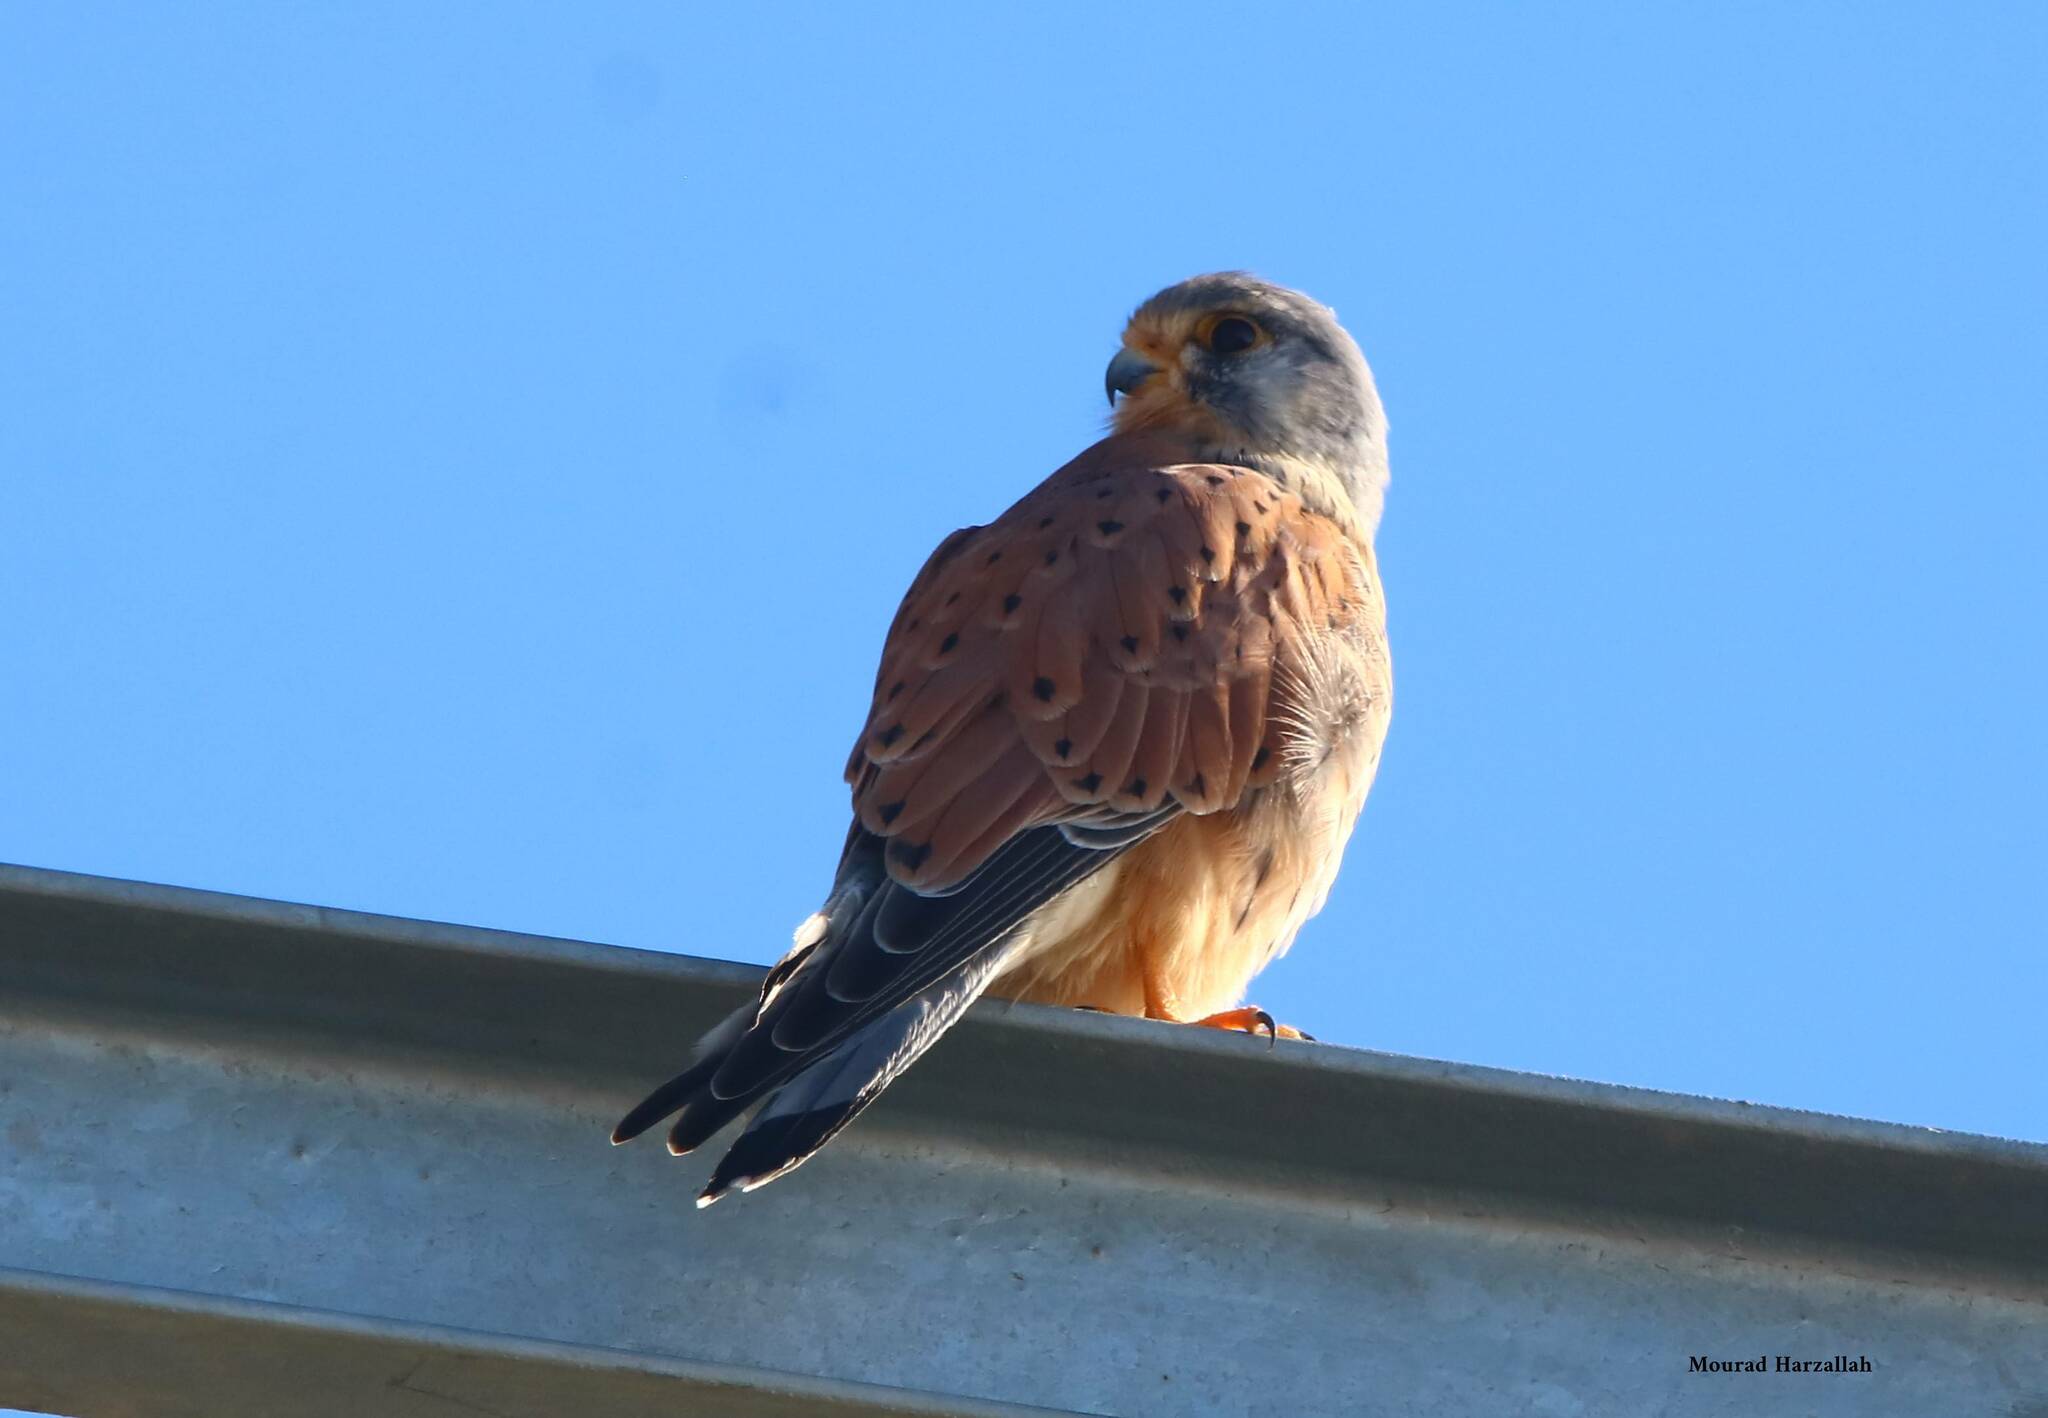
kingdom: Animalia
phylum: Chordata
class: Aves
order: Falconiformes
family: Falconidae
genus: Falco
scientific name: Falco tinnunculus
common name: Common kestrel
